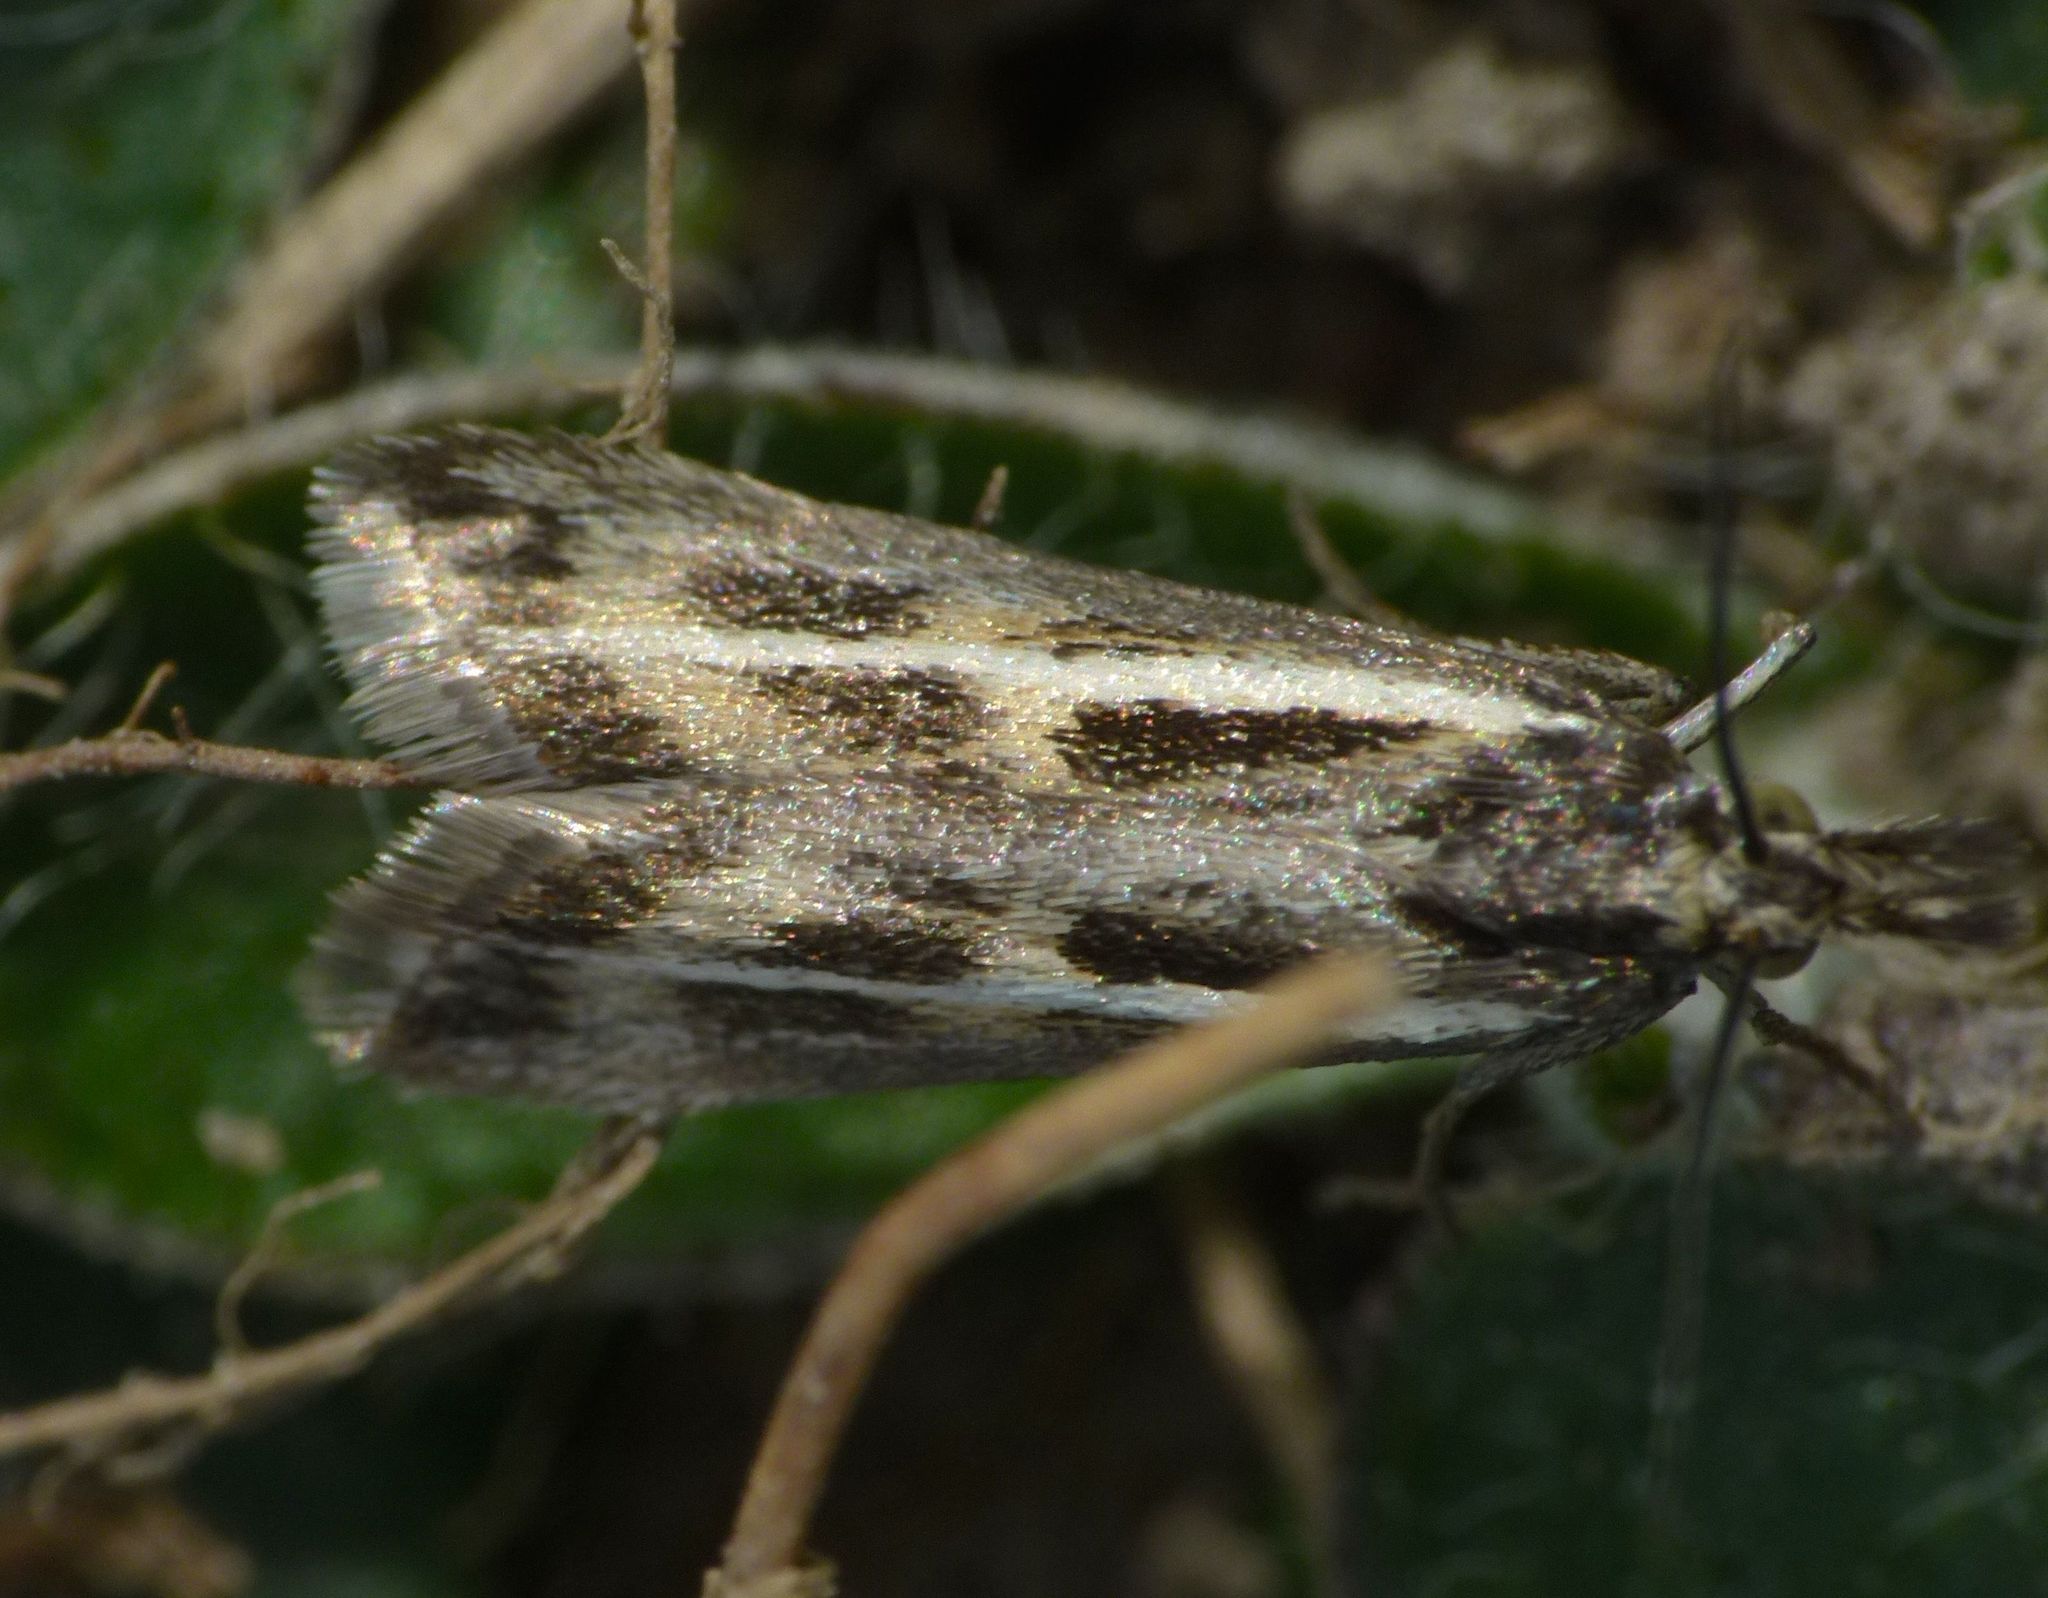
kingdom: Animalia
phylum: Arthropoda
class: Insecta
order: Lepidoptera
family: Crambidae
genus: Orocrambus
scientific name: Orocrambus corruptus
